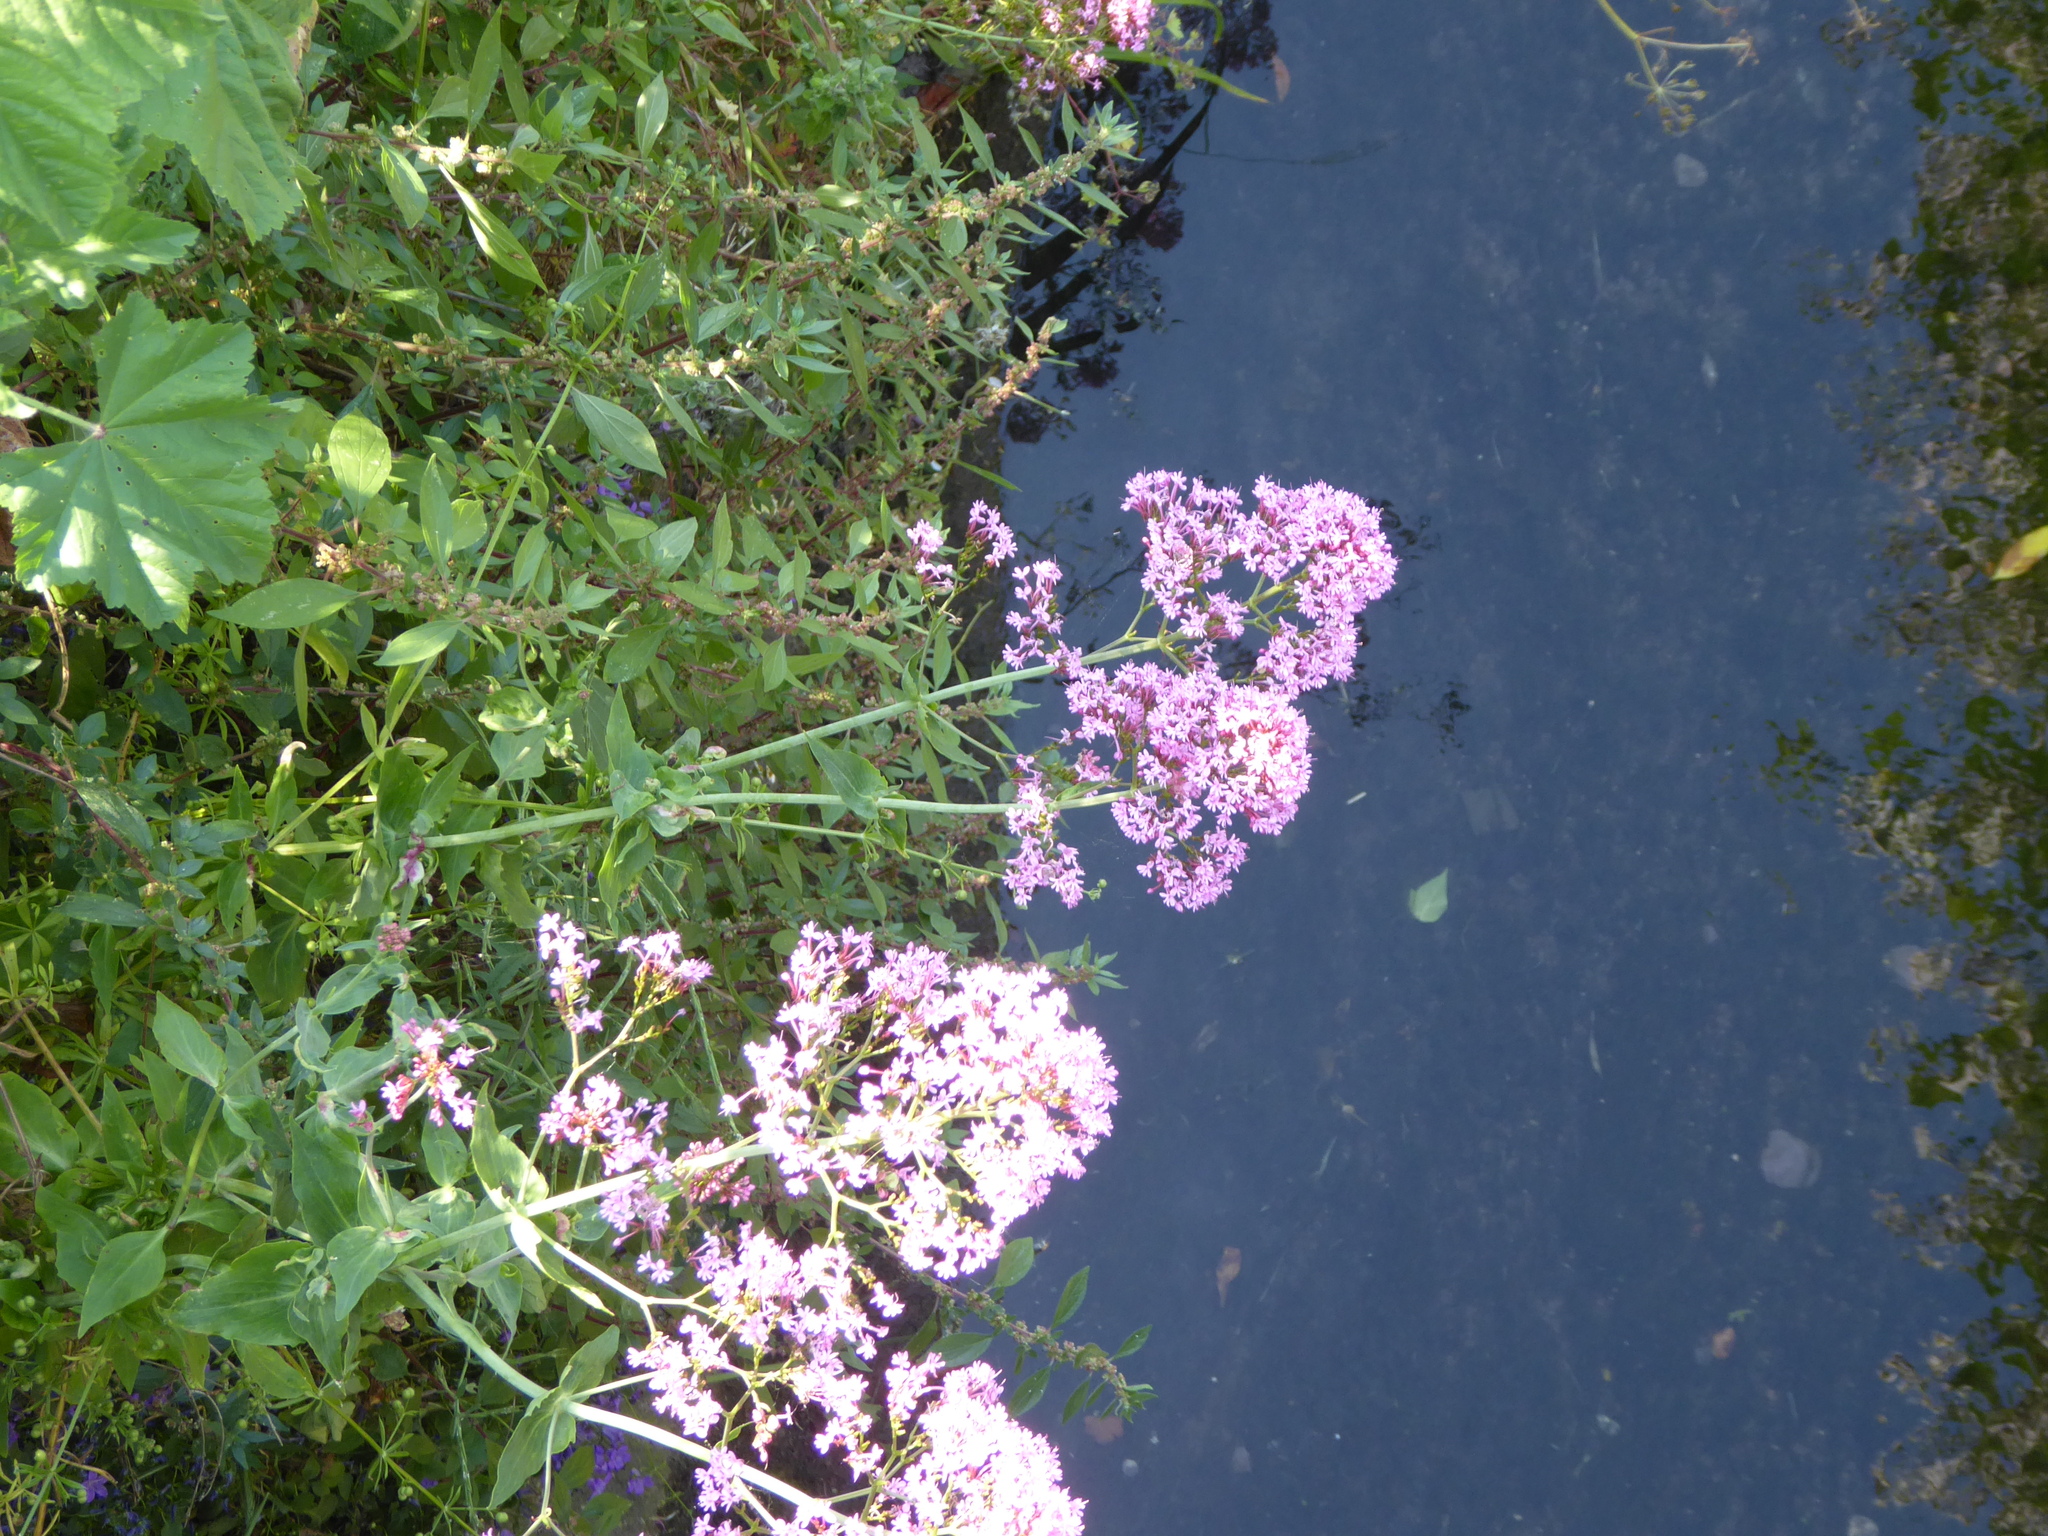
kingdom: Plantae
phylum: Tracheophyta
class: Magnoliopsida
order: Dipsacales
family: Caprifoliaceae
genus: Centranthus
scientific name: Centranthus ruber
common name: Red valerian
